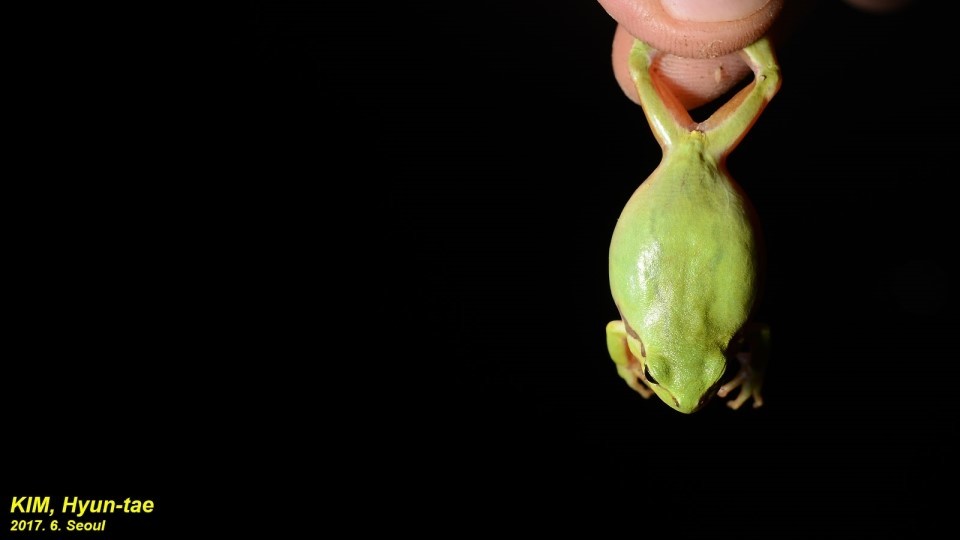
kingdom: Animalia
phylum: Chordata
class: Amphibia
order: Anura
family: Hylidae
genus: Dryophytes
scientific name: Dryophytes immaculatus
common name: North china treefrog
